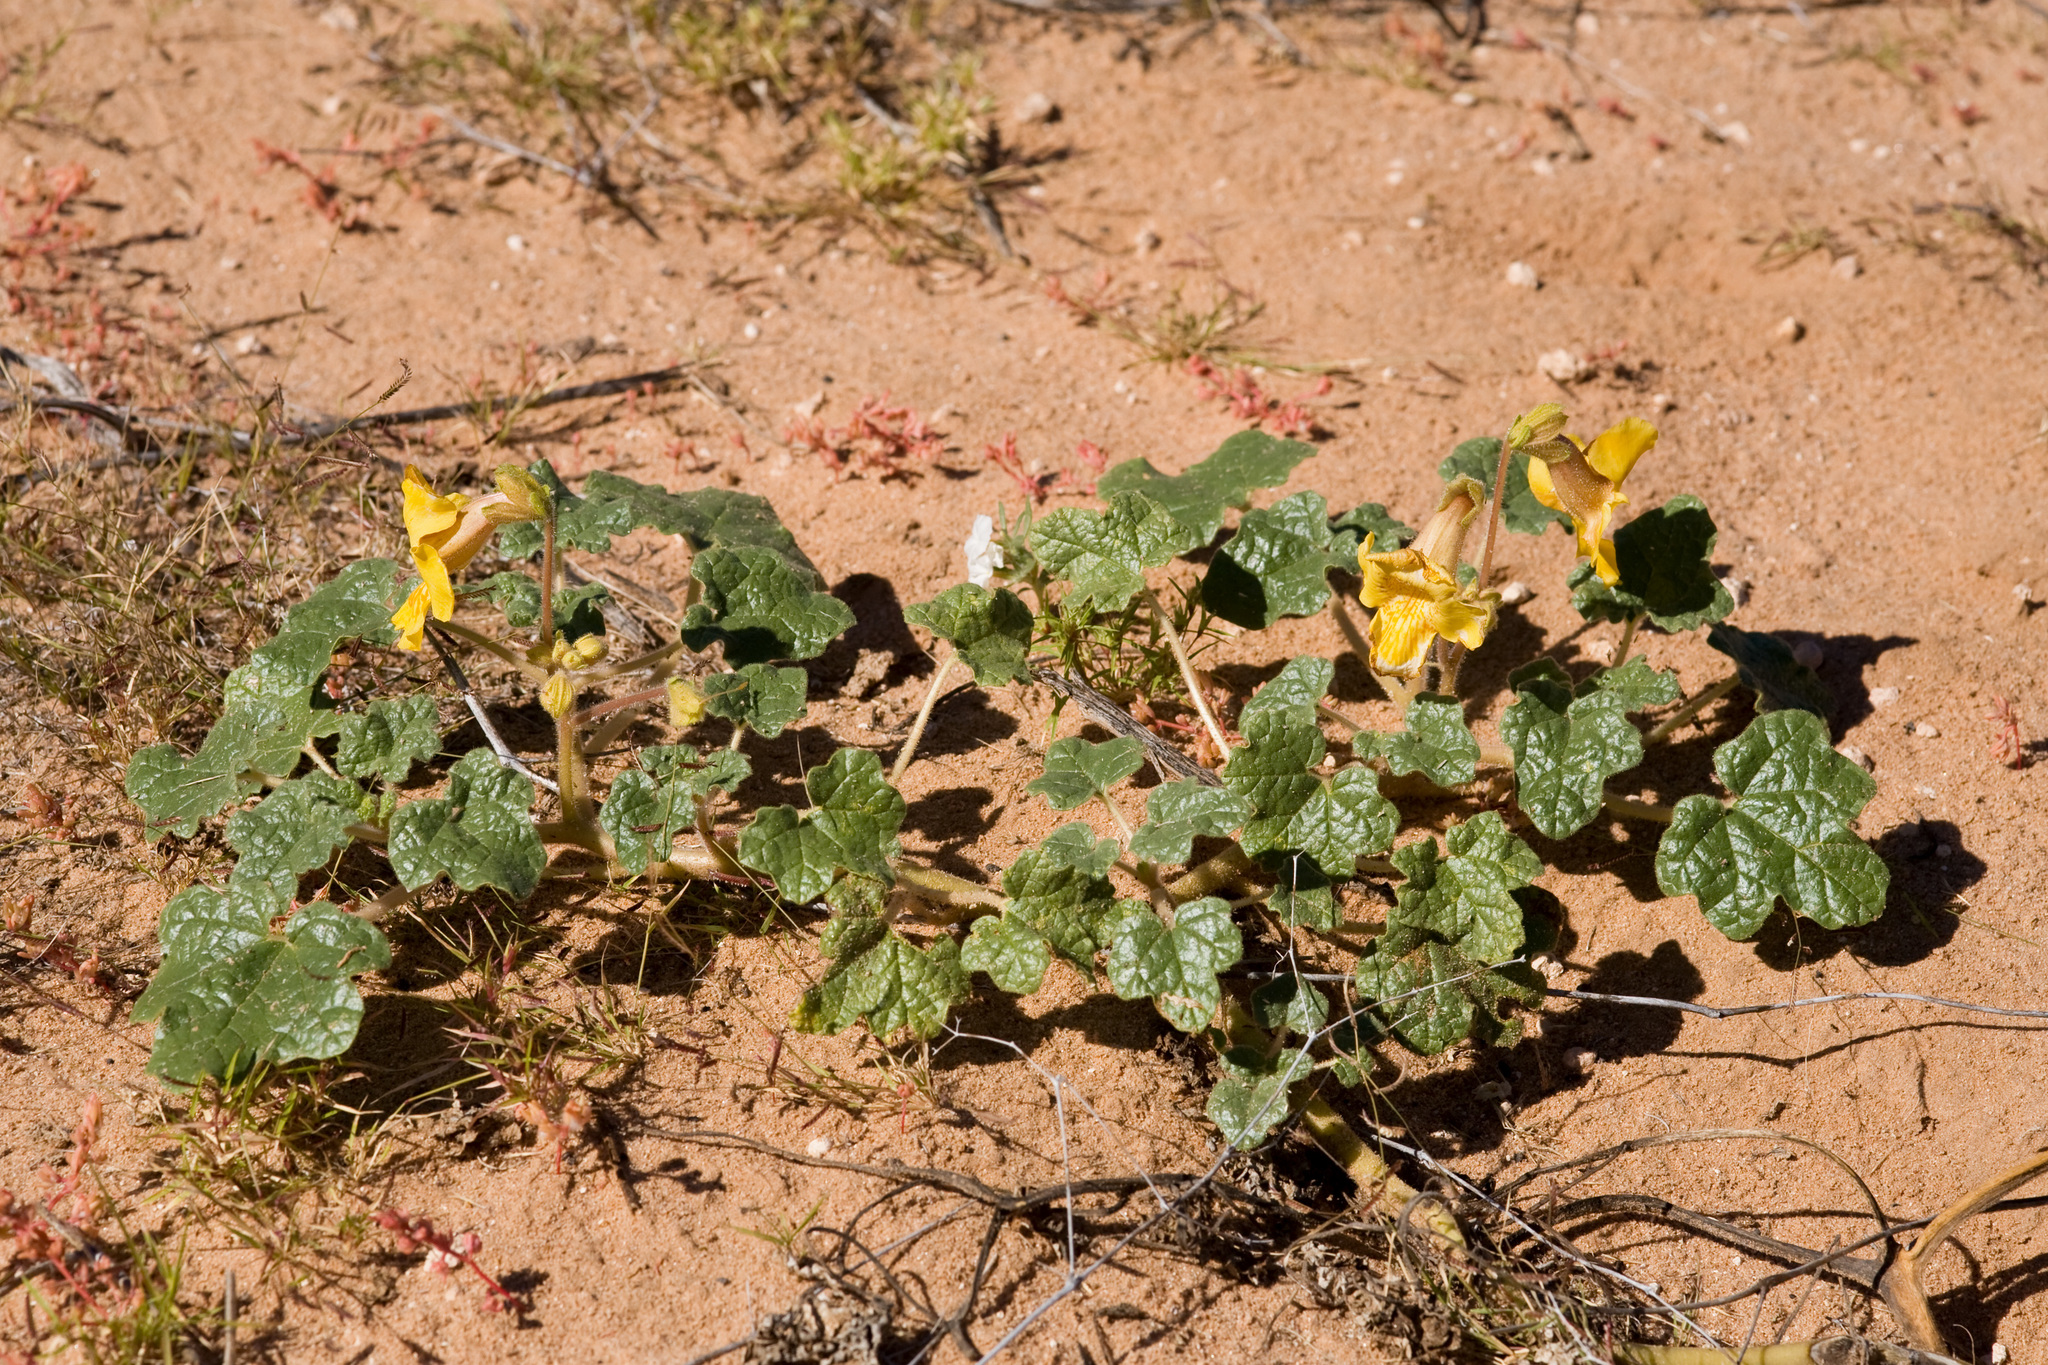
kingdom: Plantae
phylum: Tracheophyta
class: Magnoliopsida
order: Lamiales
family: Martyniaceae
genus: Proboscidea
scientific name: Proboscidea althaeifolia
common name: Desert unicorn-plant
